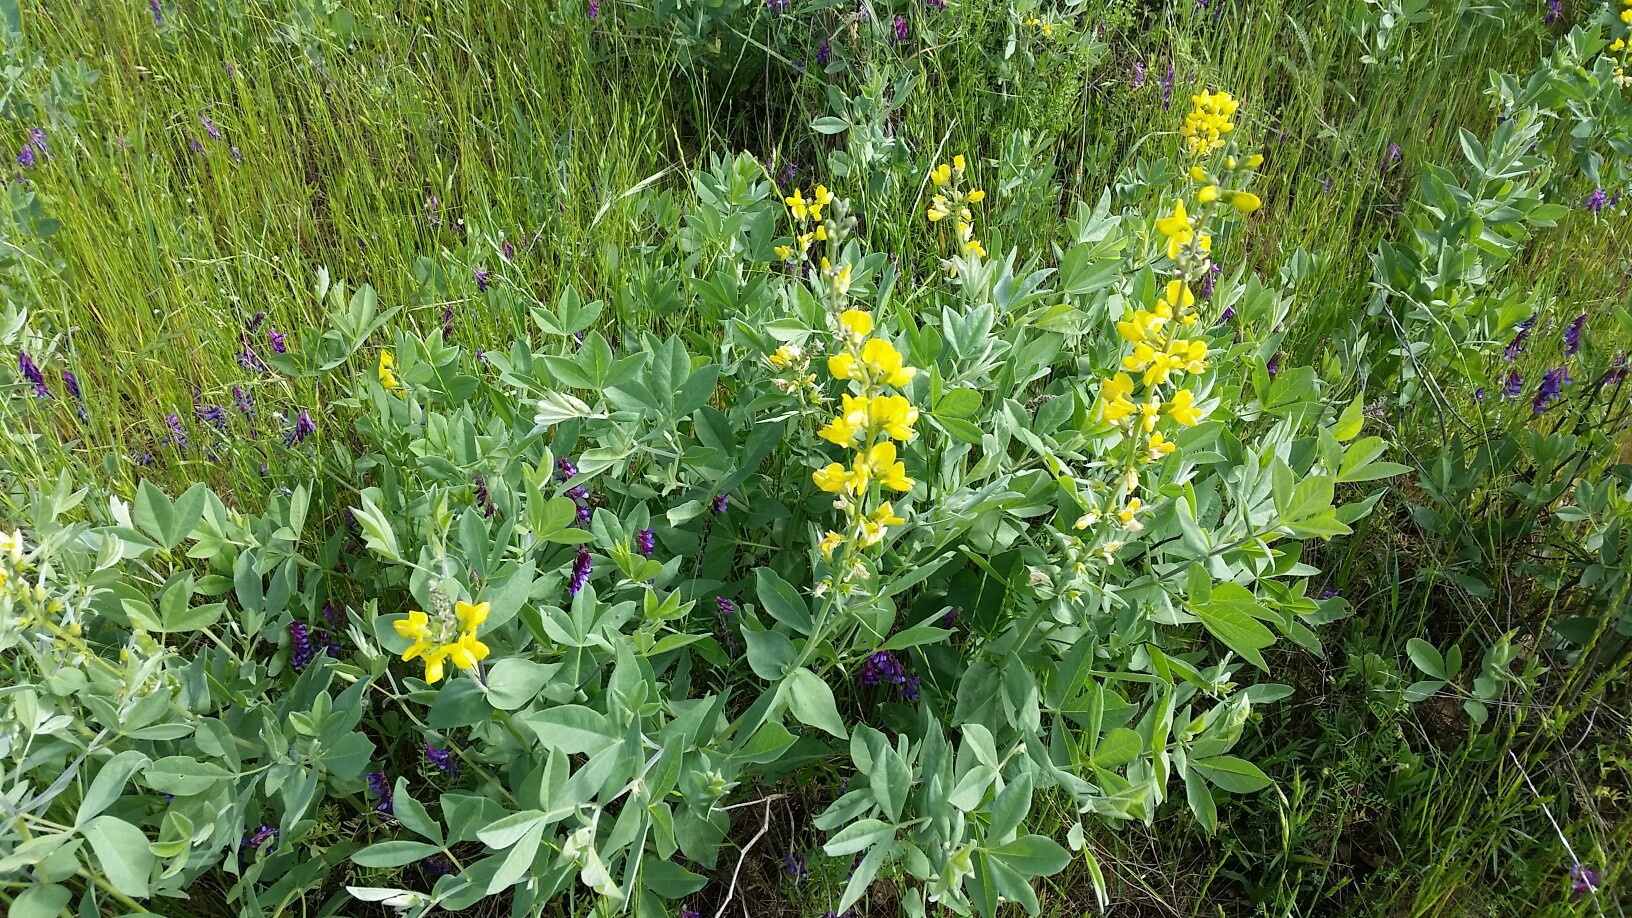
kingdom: Plantae
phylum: Tracheophyta
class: Magnoliopsida
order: Fabales
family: Fabaceae
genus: Thermopsis
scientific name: Thermopsis californica
